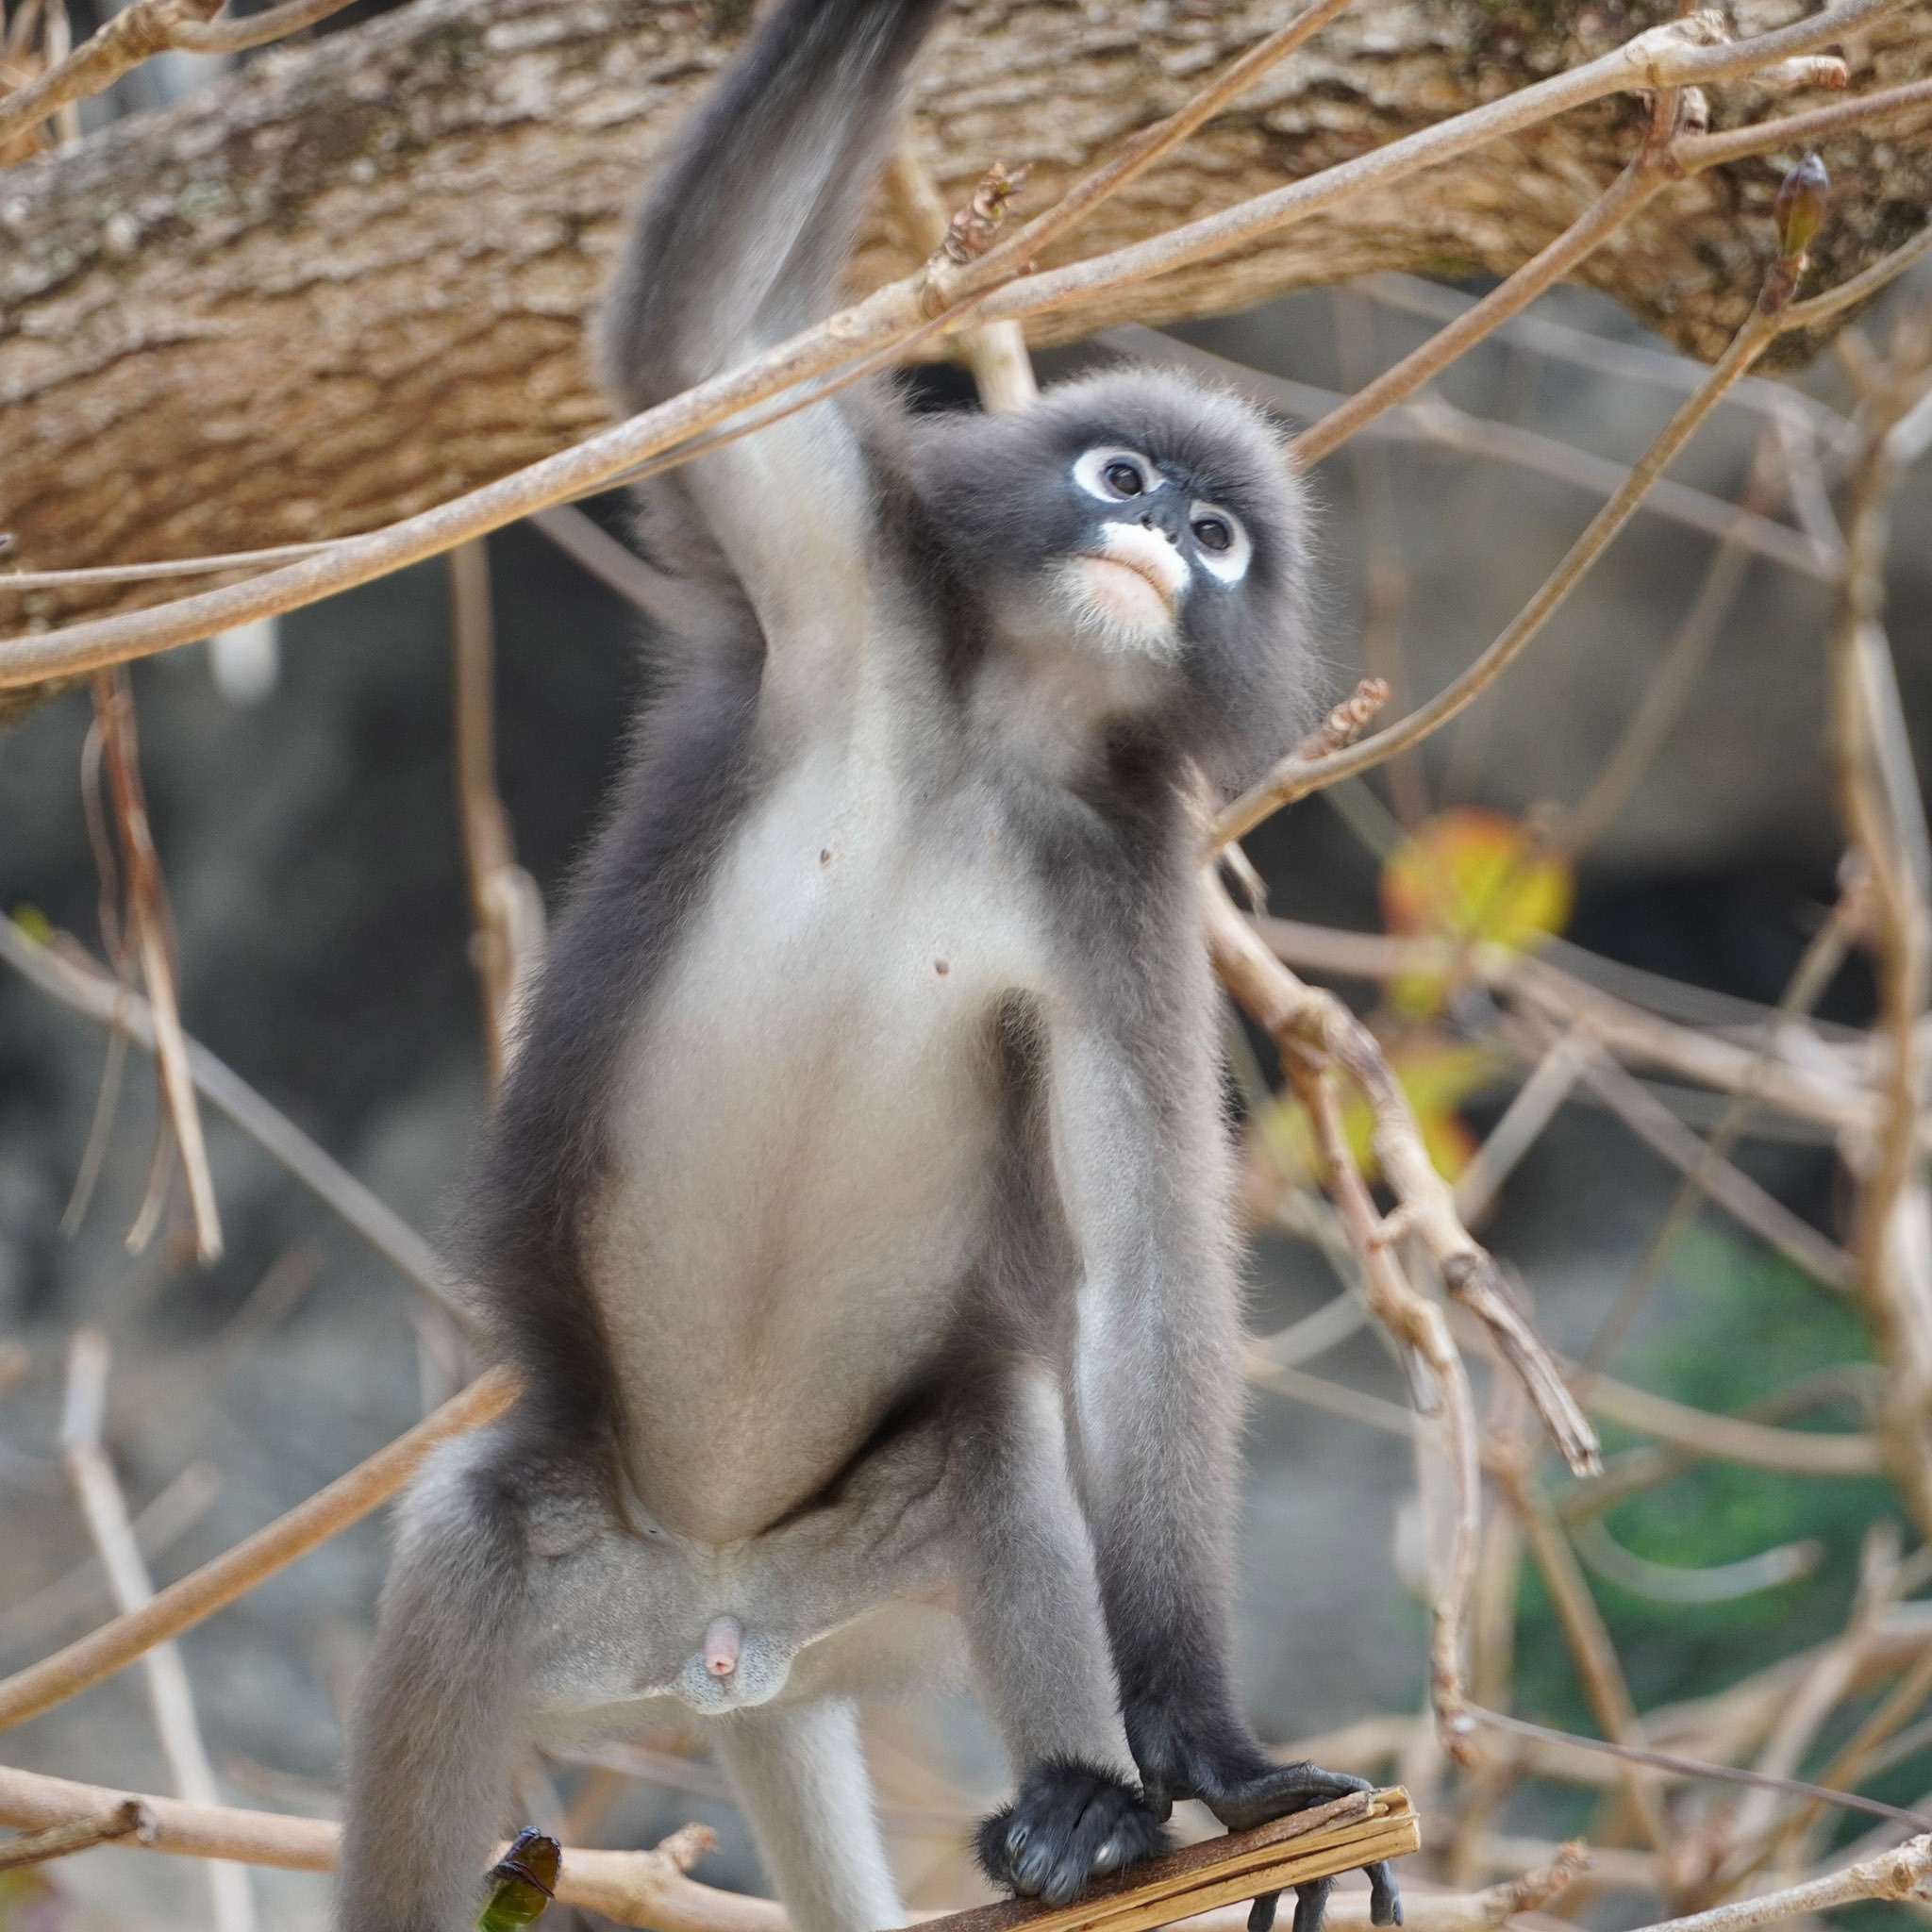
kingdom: Animalia
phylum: Chordata
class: Mammalia
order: Primates
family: Cercopithecidae
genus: Trachypithecus
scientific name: Trachypithecus obscurus
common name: Dusky leaf-monkey
